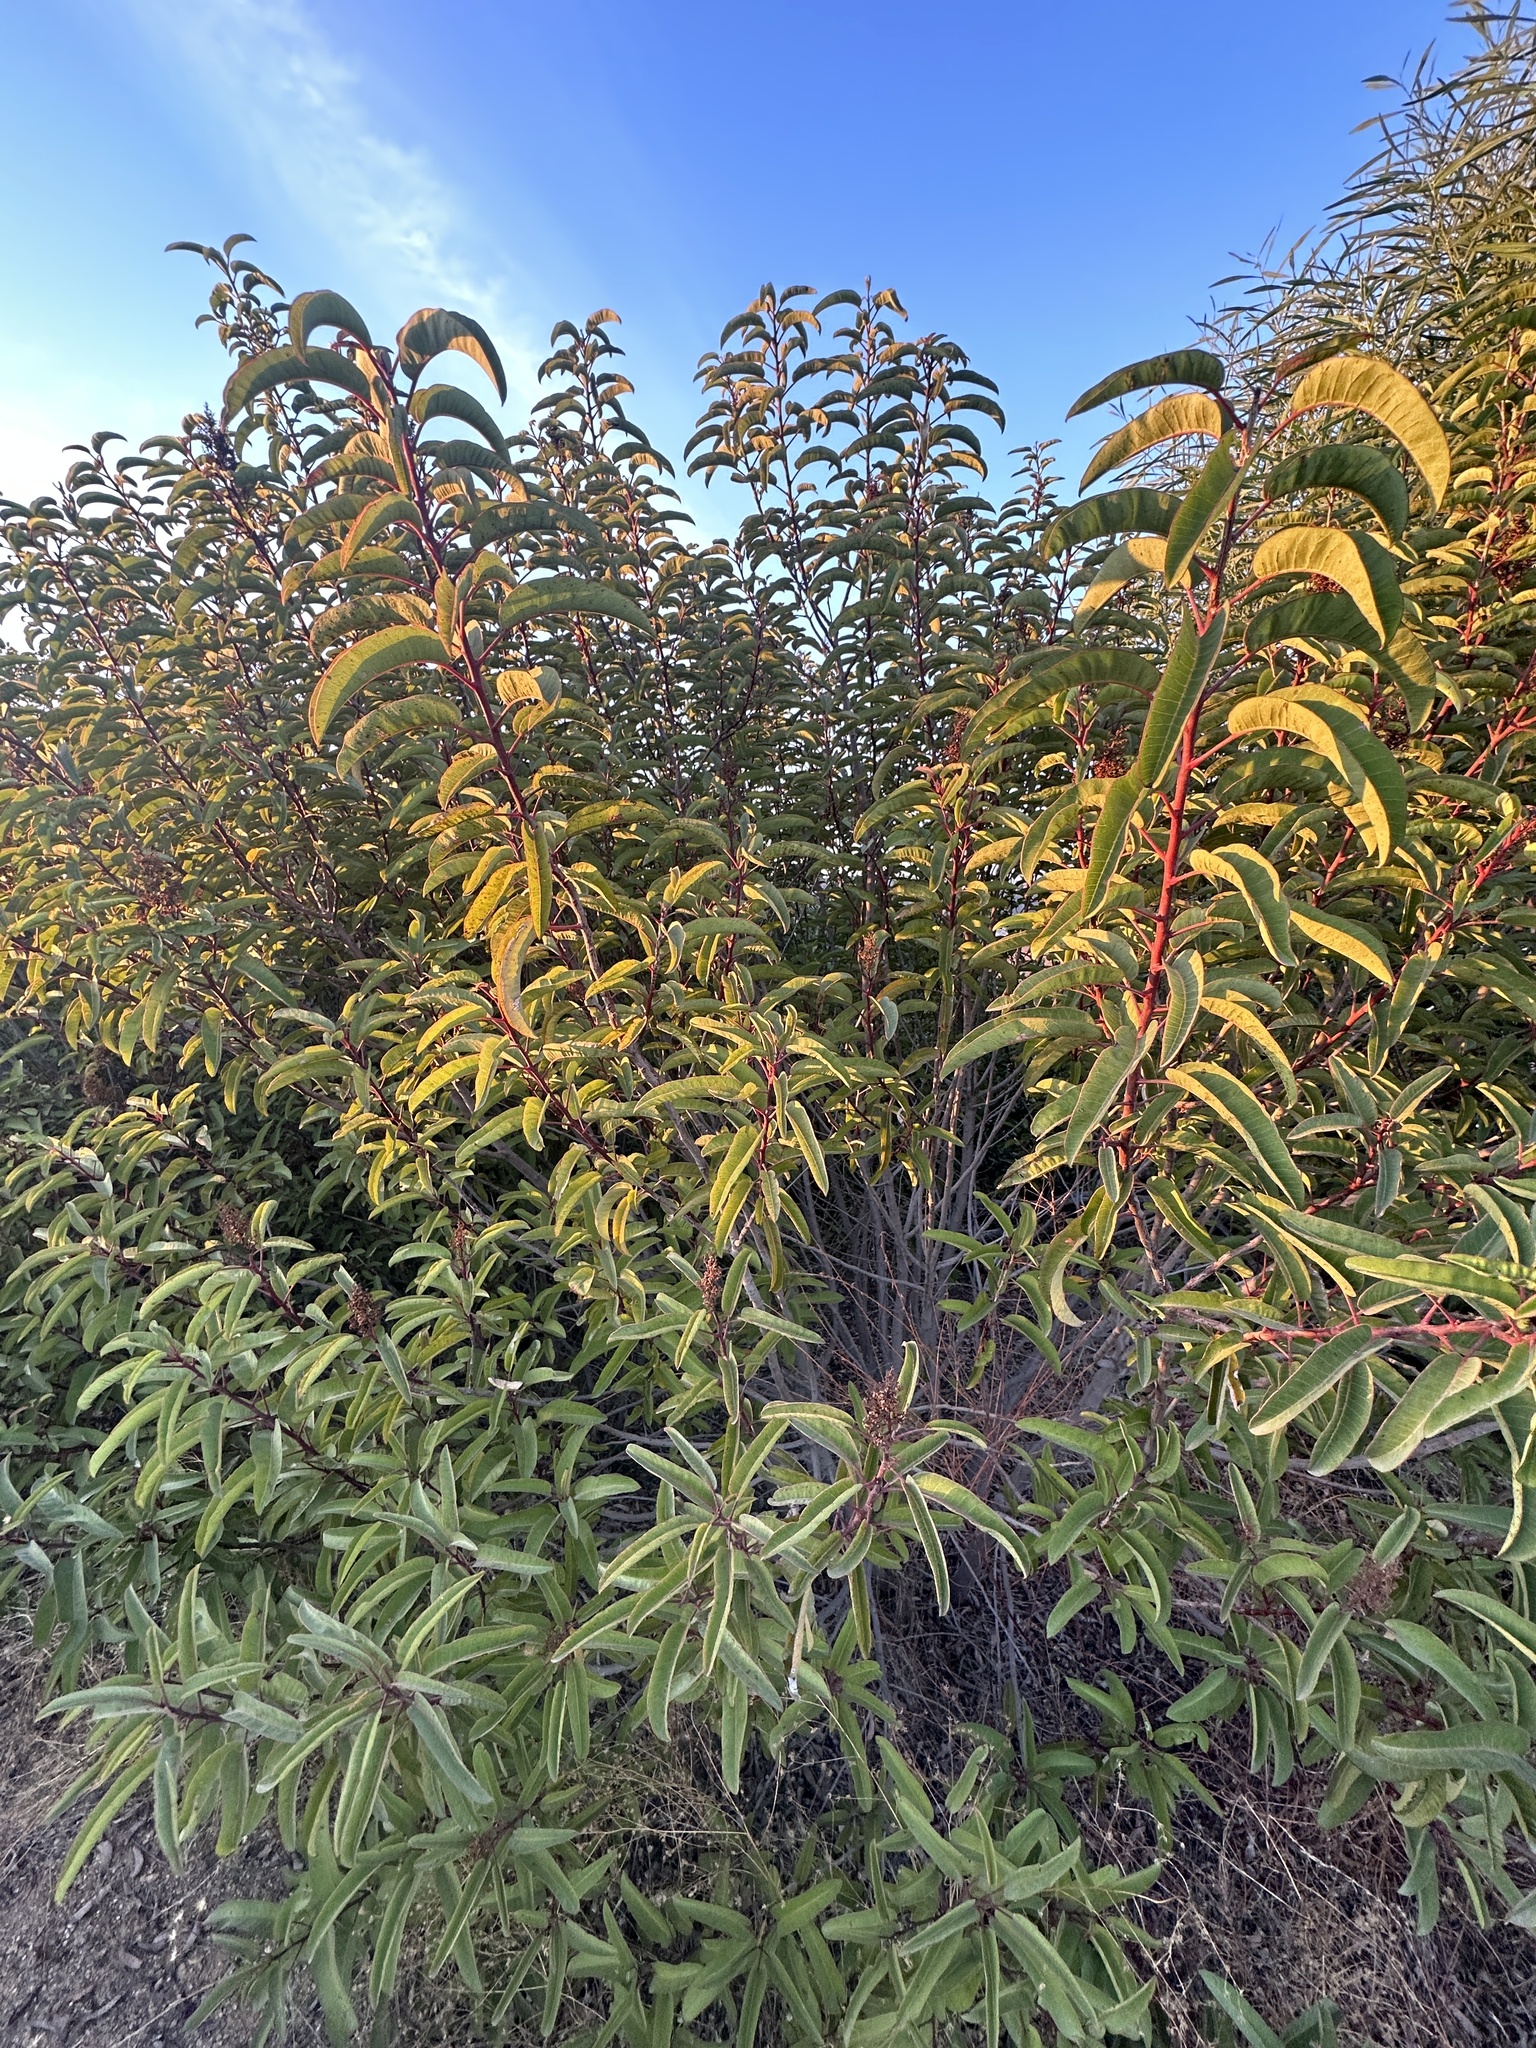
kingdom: Plantae
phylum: Tracheophyta
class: Magnoliopsida
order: Sapindales
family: Anacardiaceae
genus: Malosma
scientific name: Malosma laurina
